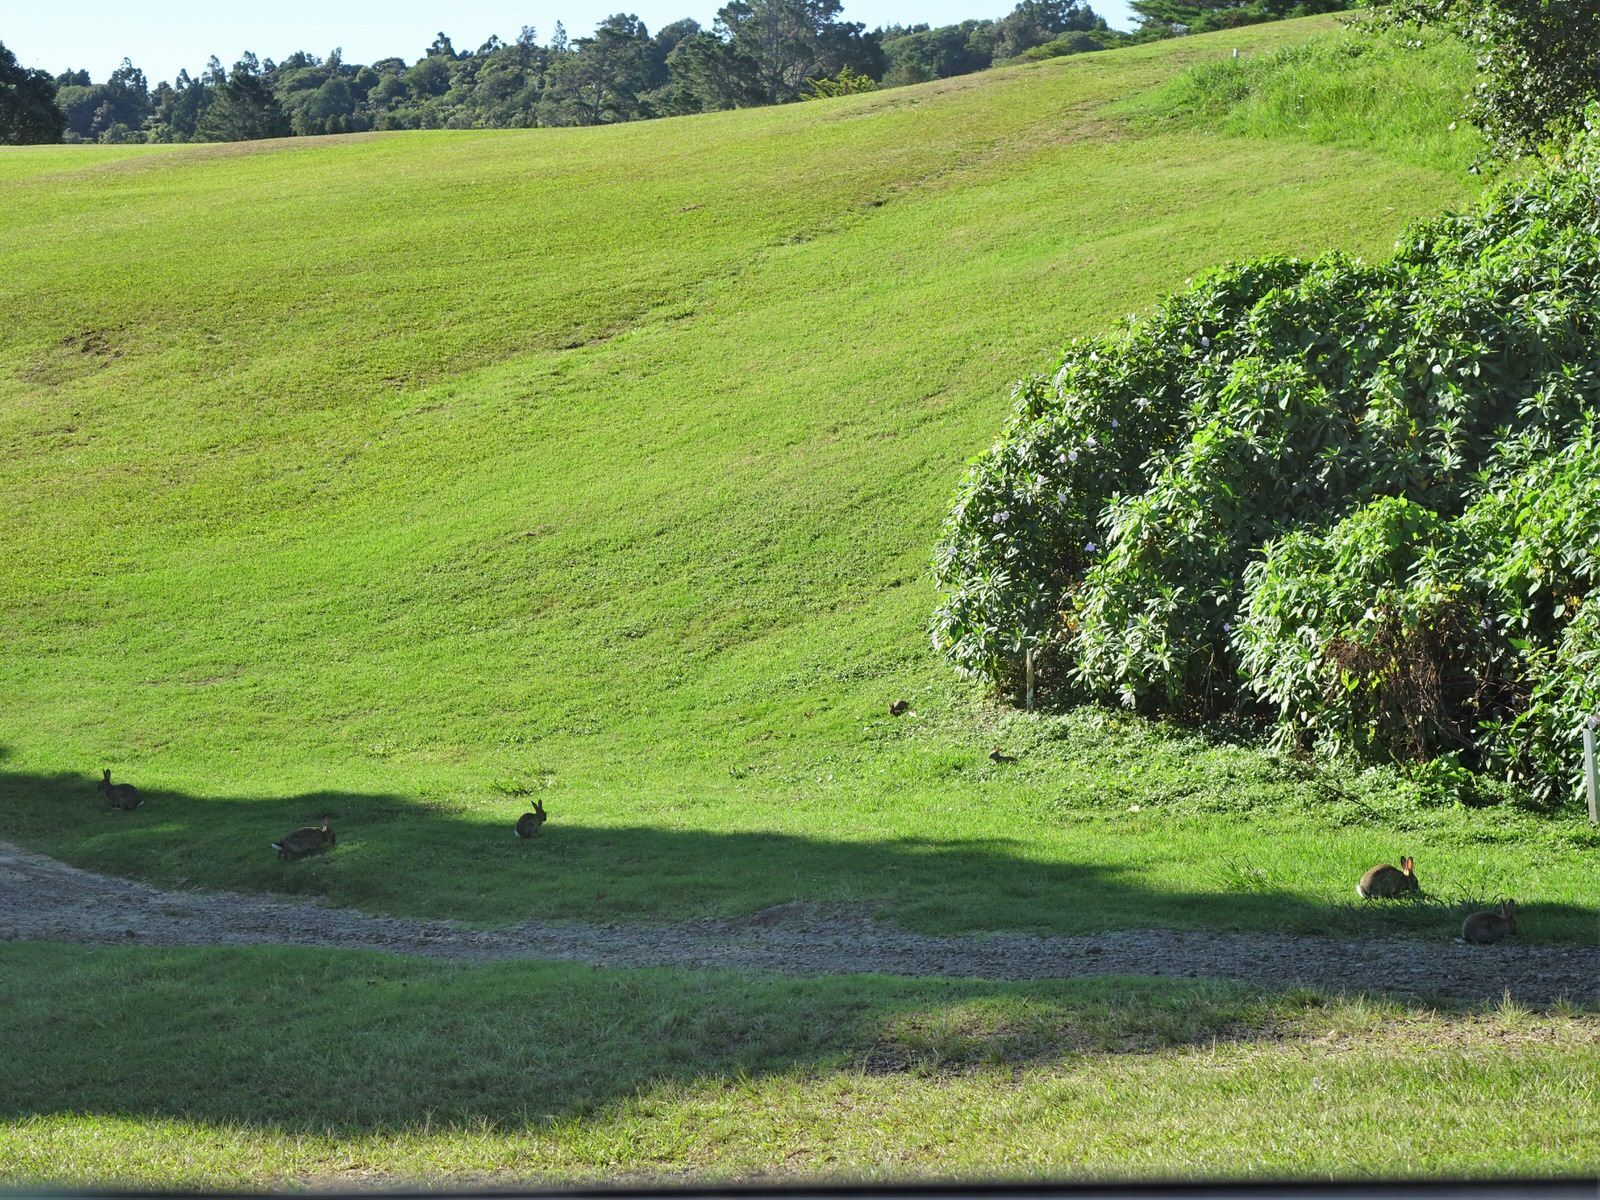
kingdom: Animalia
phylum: Chordata
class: Mammalia
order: Lagomorpha
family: Leporidae
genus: Oryctolagus
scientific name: Oryctolagus cuniculus
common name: European rabbit
